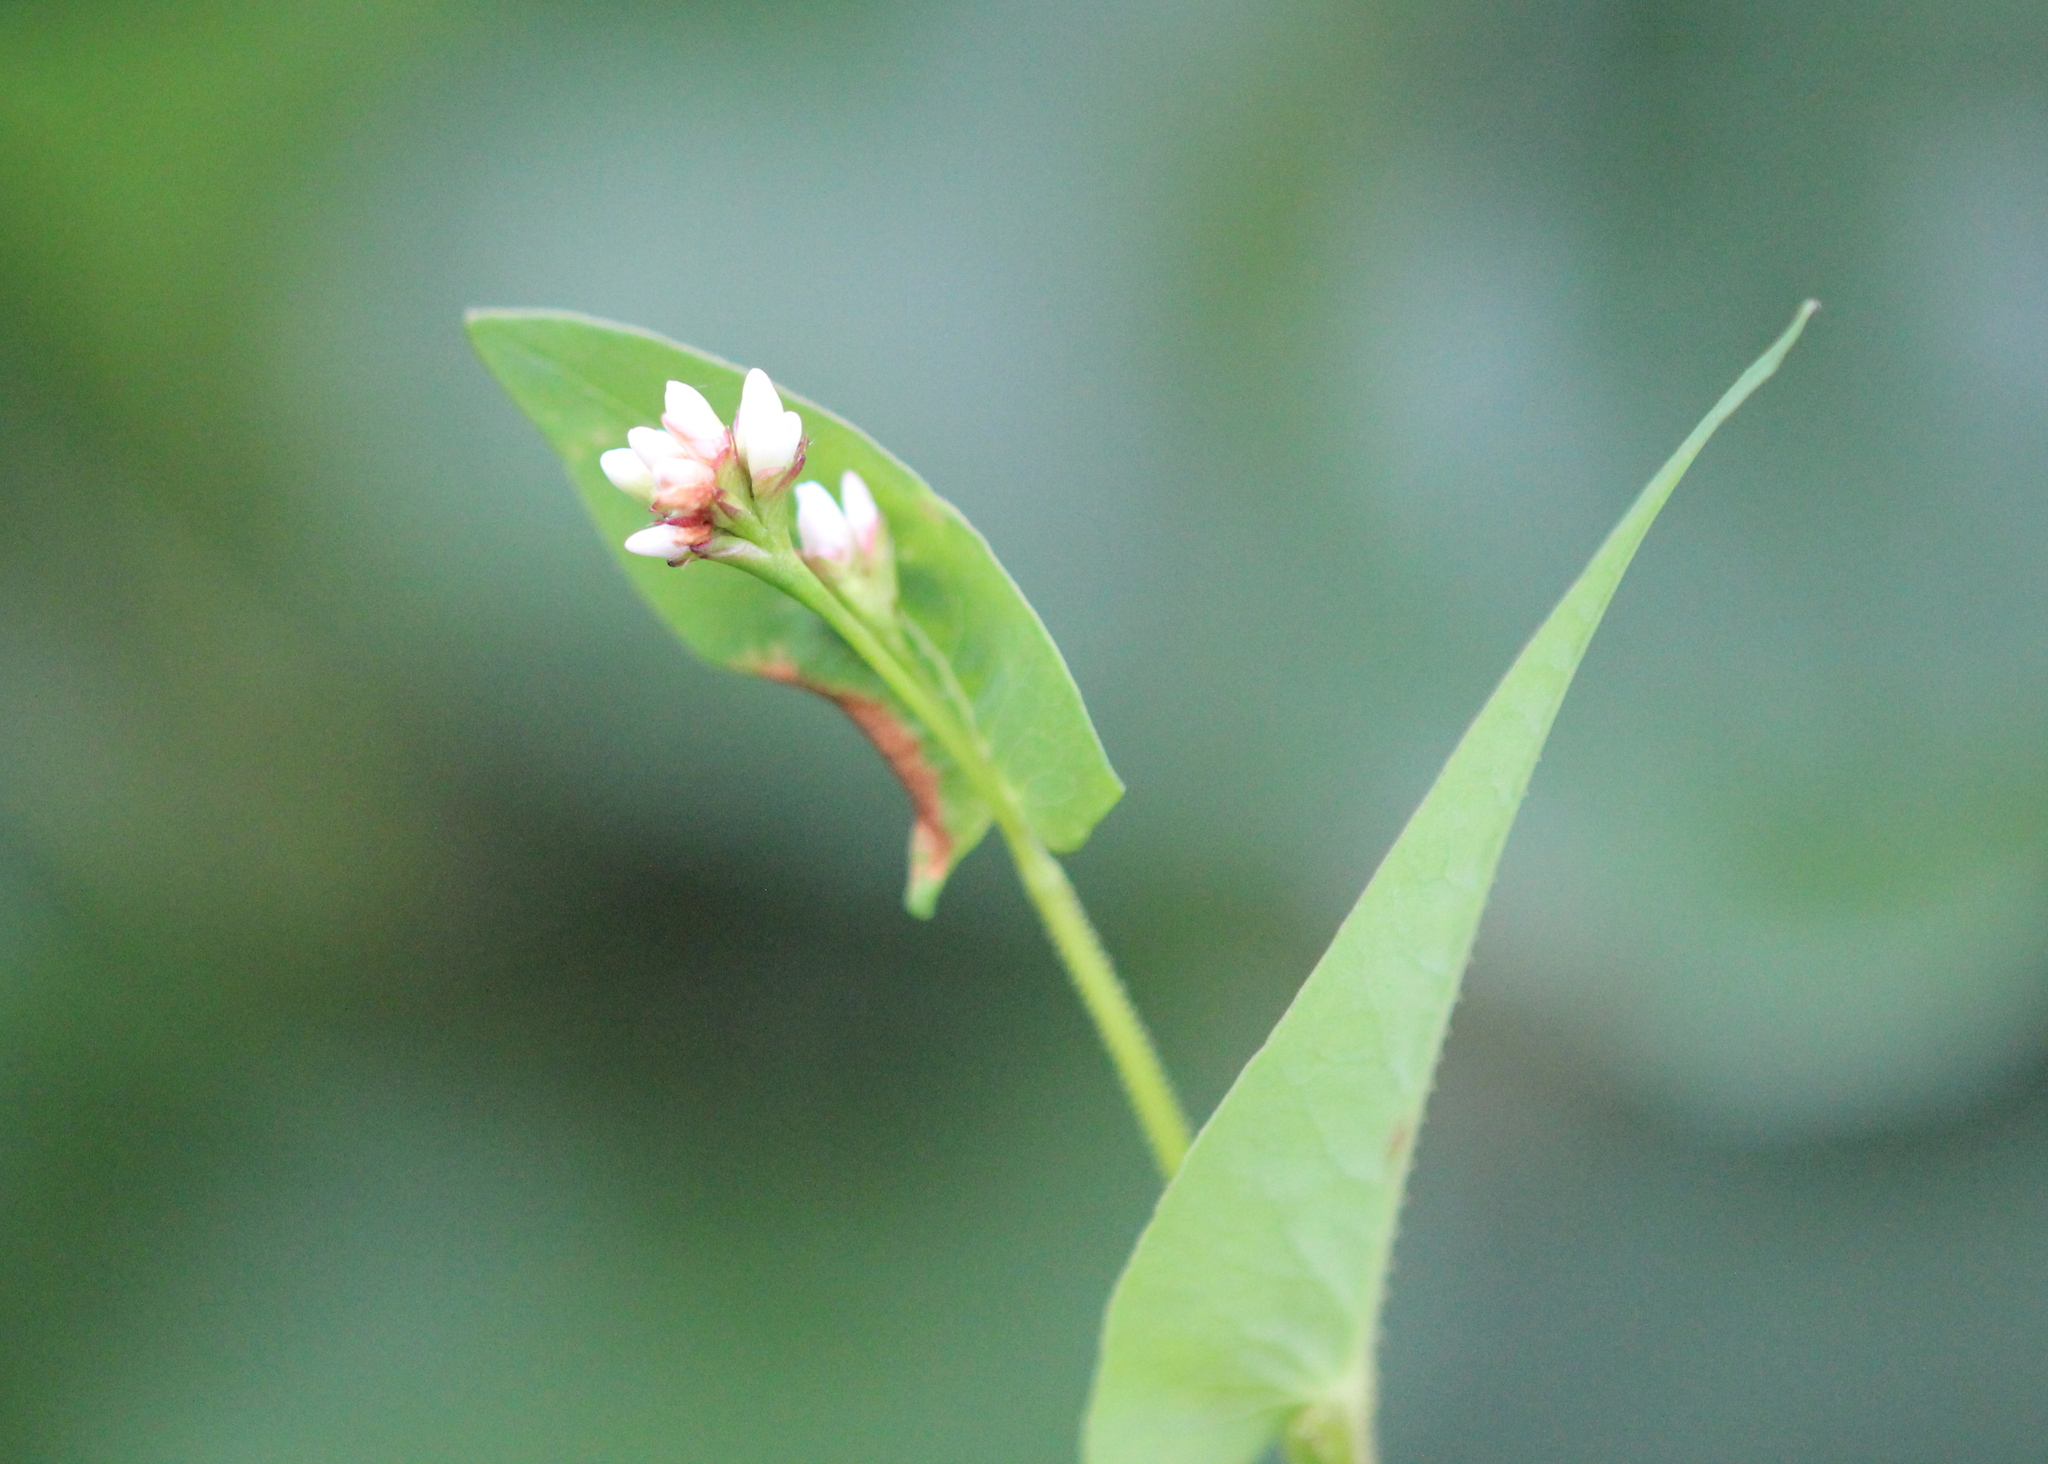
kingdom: Plantae
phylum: Tracheophyta
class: Magnoliopsida
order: Caryophyllales
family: Polygonaceae
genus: Persicaria
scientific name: Persicaria sagittata
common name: American tearthumb
